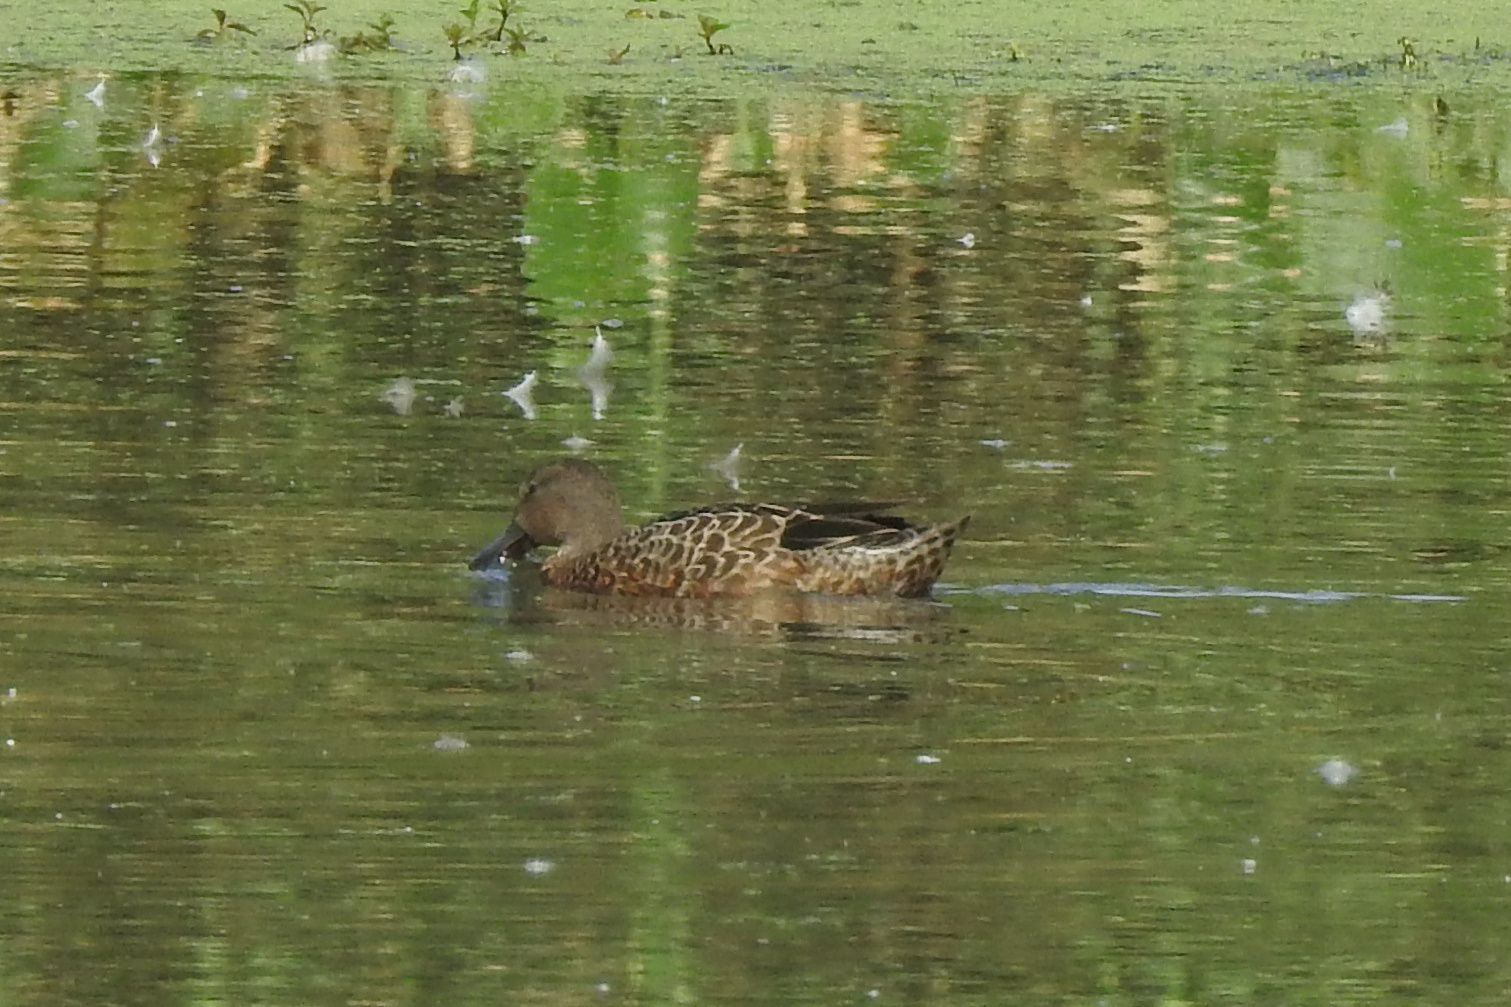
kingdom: Animalia
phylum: Chordata
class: Aves
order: Anseriformes
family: Anatidae
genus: Spatula
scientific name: Spatula discors
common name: Blue-winged teal
